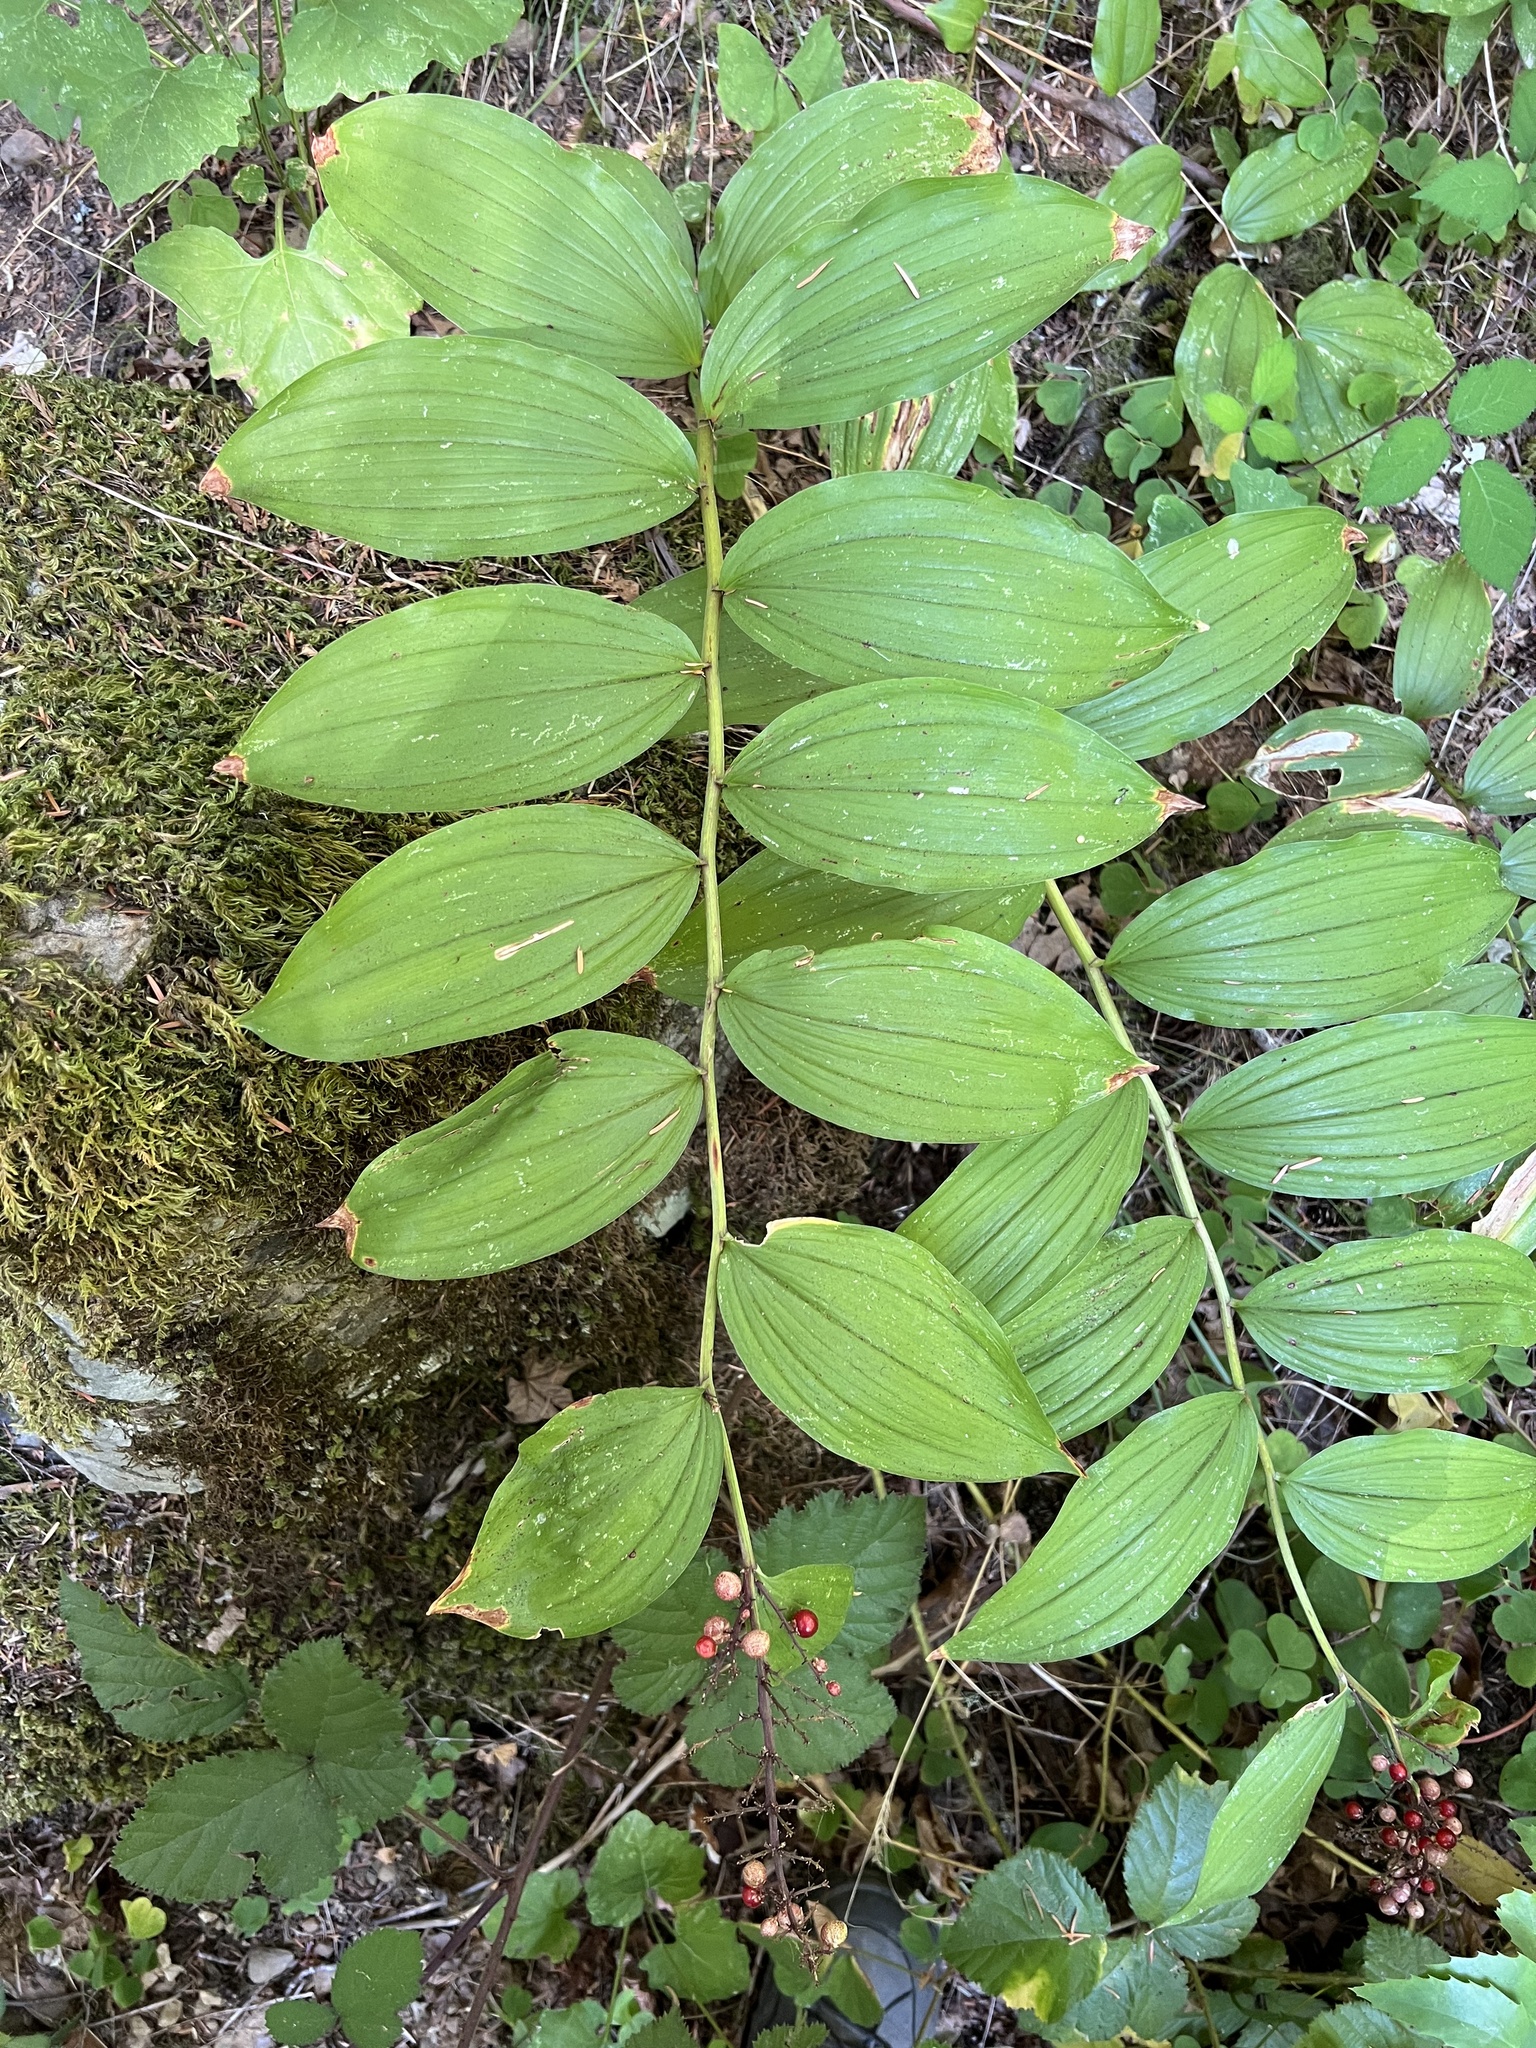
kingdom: Plantae
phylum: Tracheophyta
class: Liliopsida
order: Asparagales
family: Asparagaceae
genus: Maianthemum
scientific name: Maianthemum racemosum
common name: False spikenard
